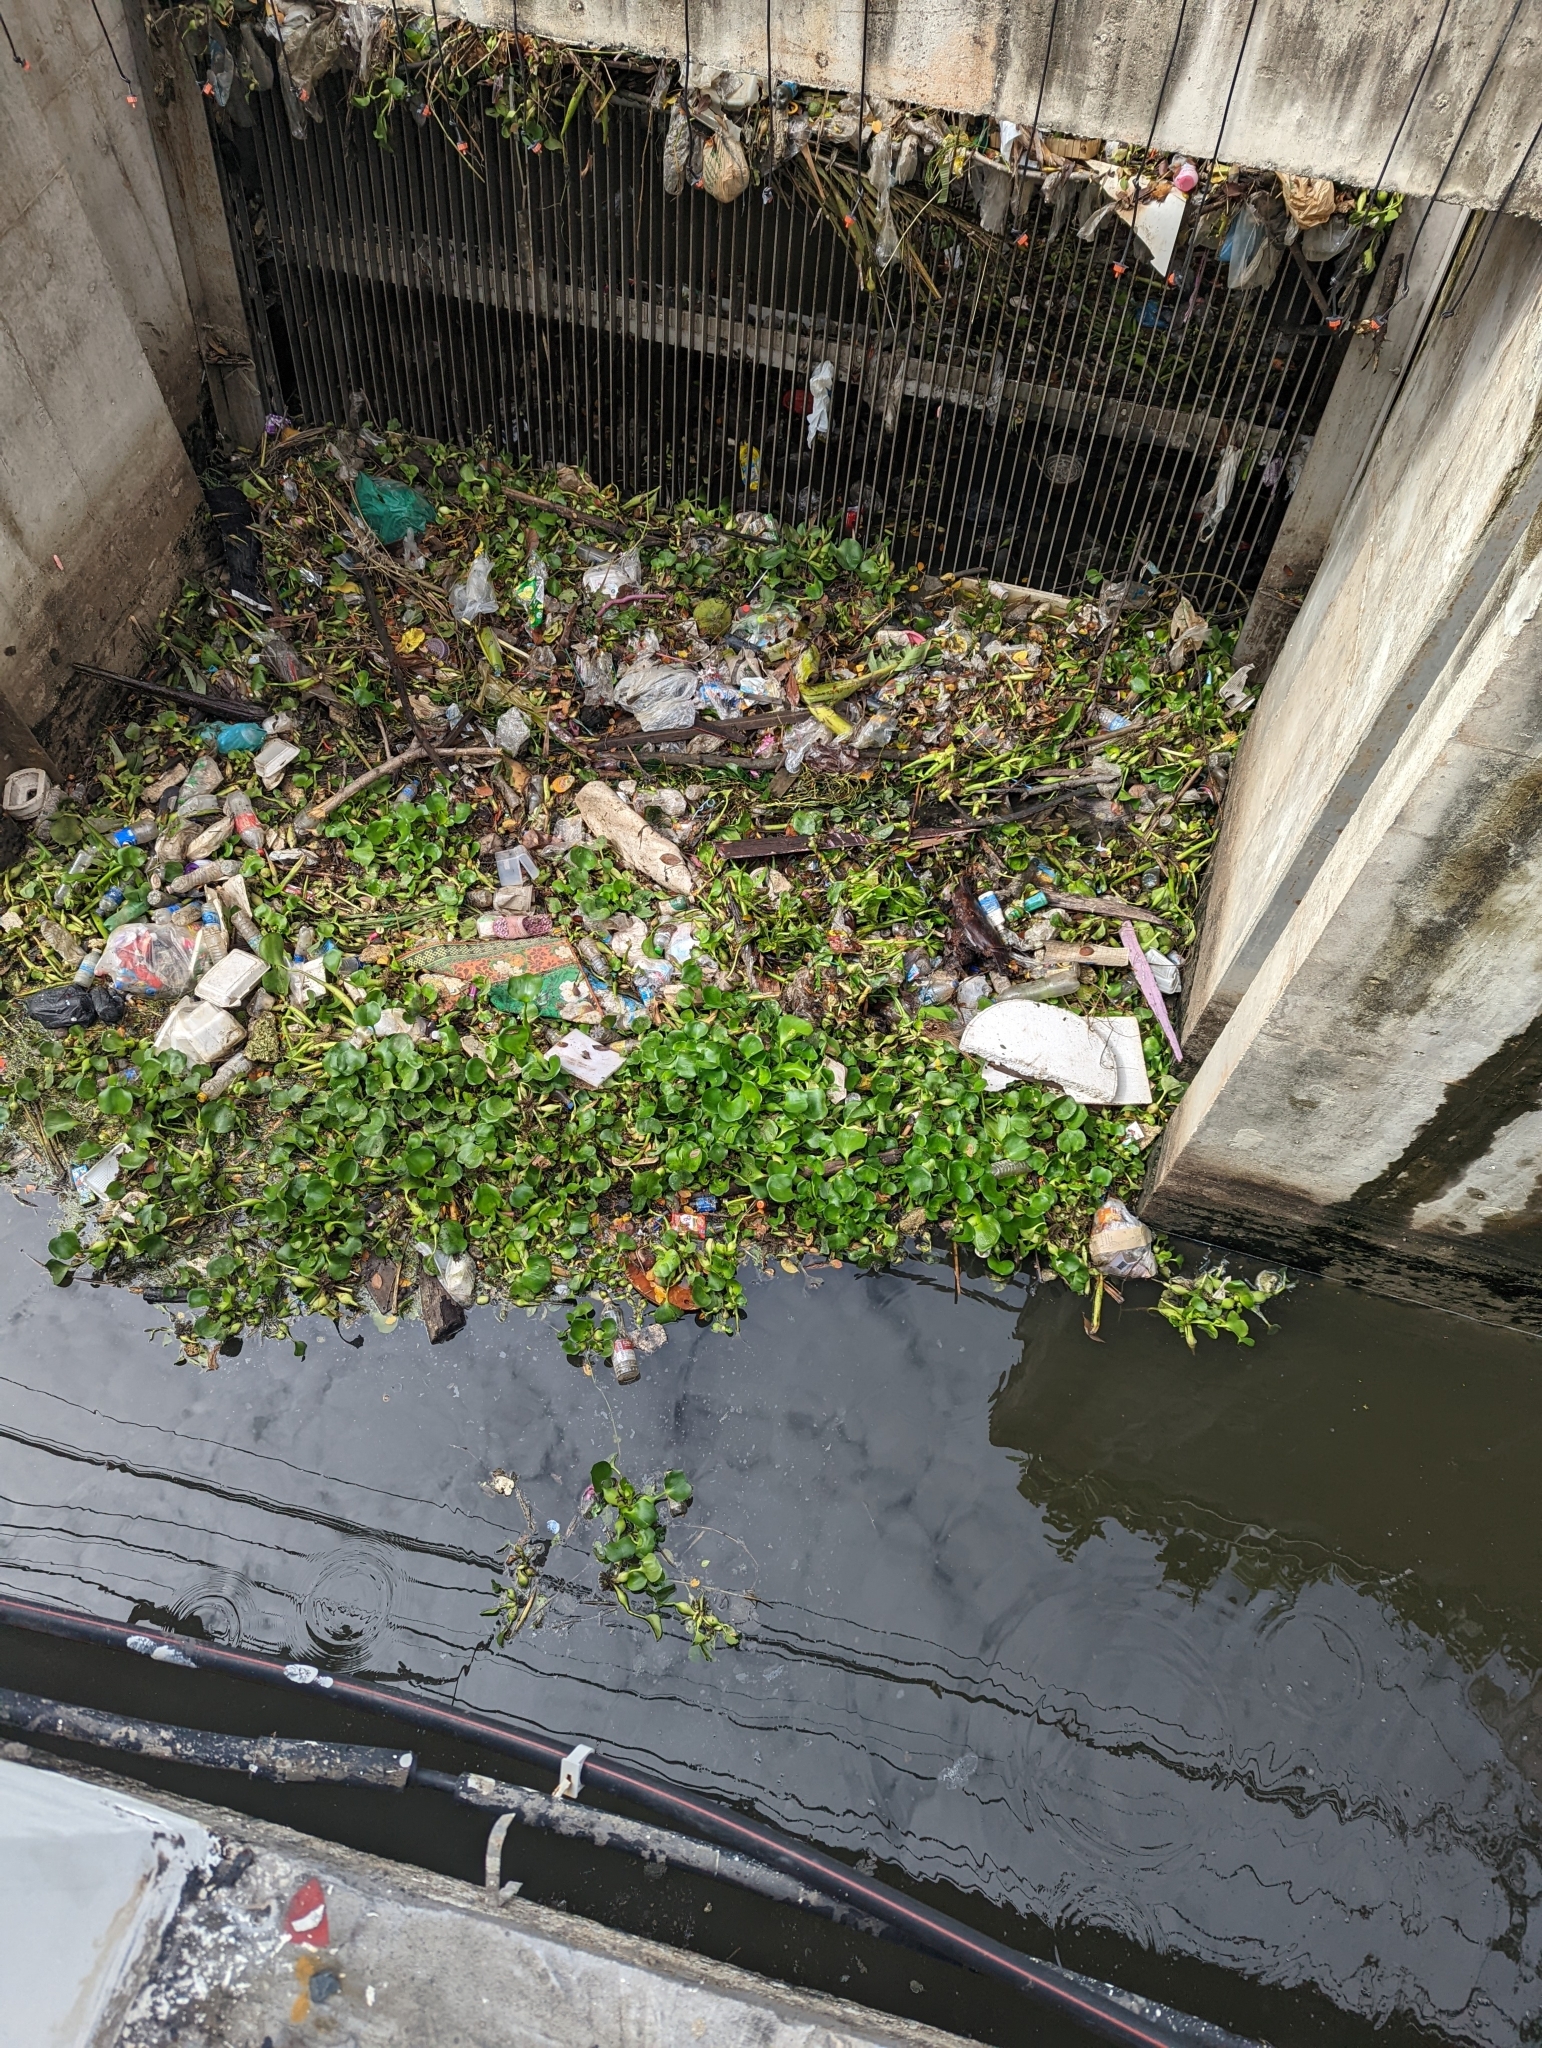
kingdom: Plantae
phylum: Tracheophyta
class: Liliopsida
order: Commelinales
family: Pontederiaceae
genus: Pontederia
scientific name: Pontederia crassipes
